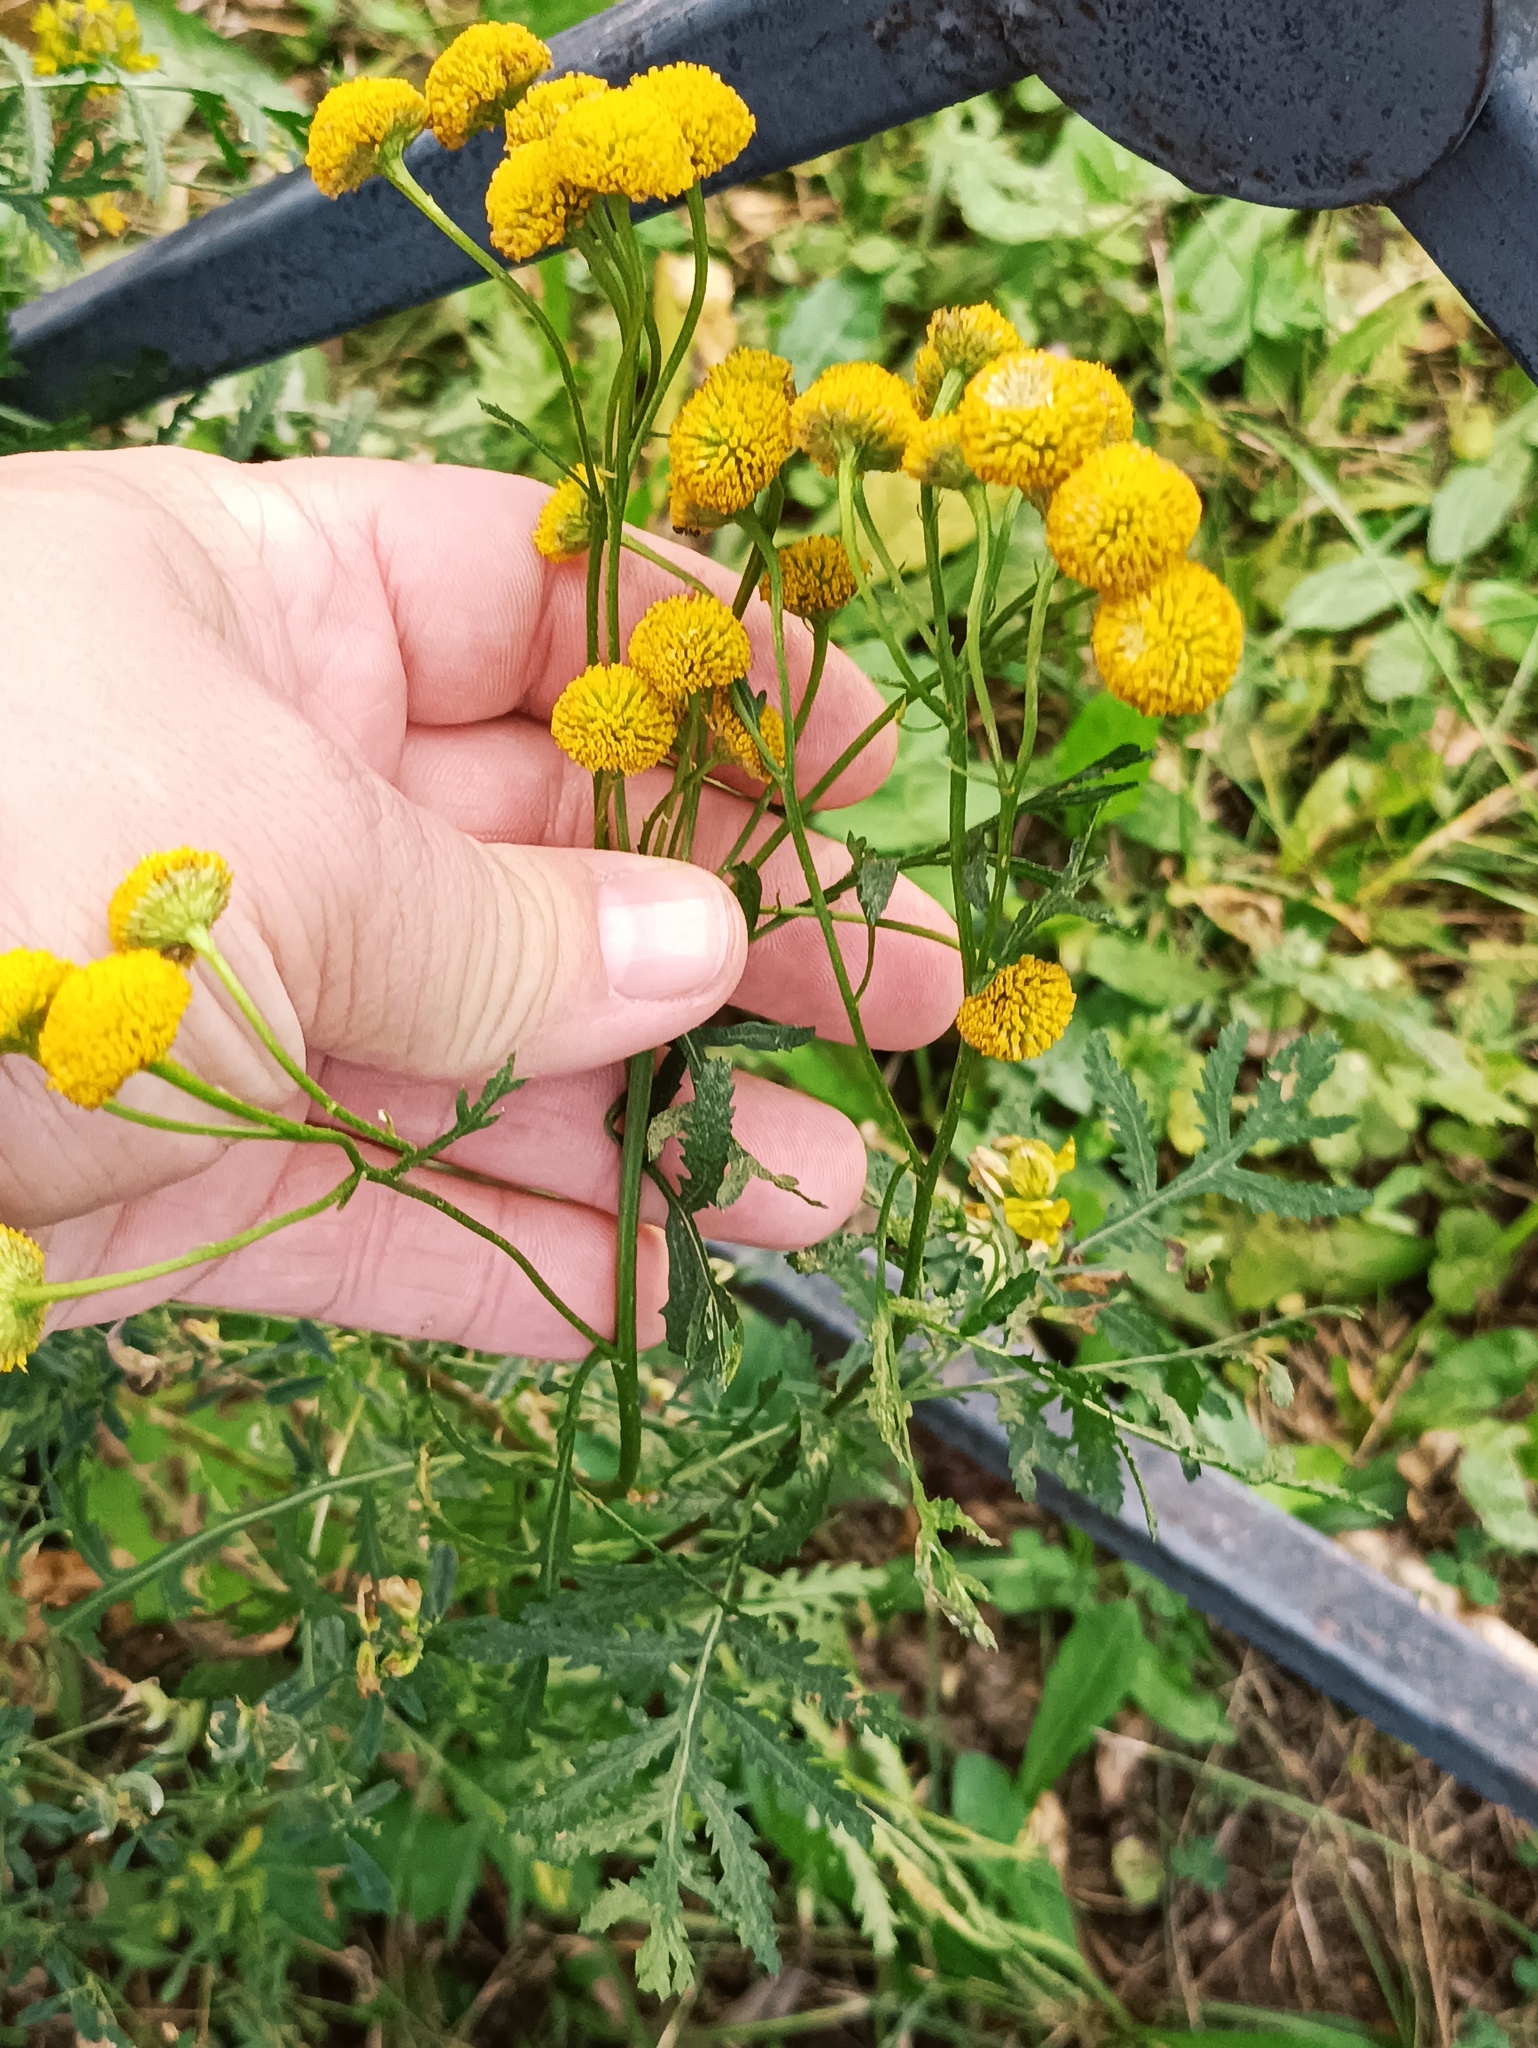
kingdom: Plantae
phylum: Tracheophyta
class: Magnoliopsida
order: Asterales
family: Asteraceae
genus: Tanacetum
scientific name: Tanacetum vulgare
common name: Common tansy
